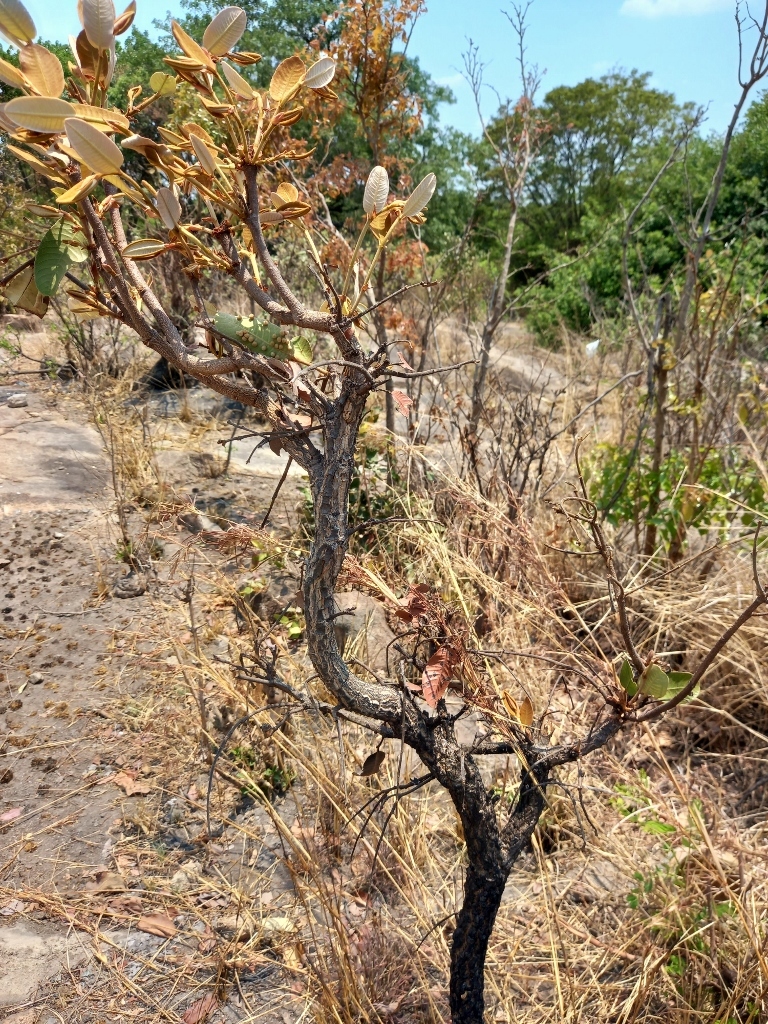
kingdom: Plantae
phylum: Tracheophyta
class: Magnoliopsida
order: Malpighiales
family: Chrysobalanaceae
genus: Parinari
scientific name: Parinari curatellifolia
